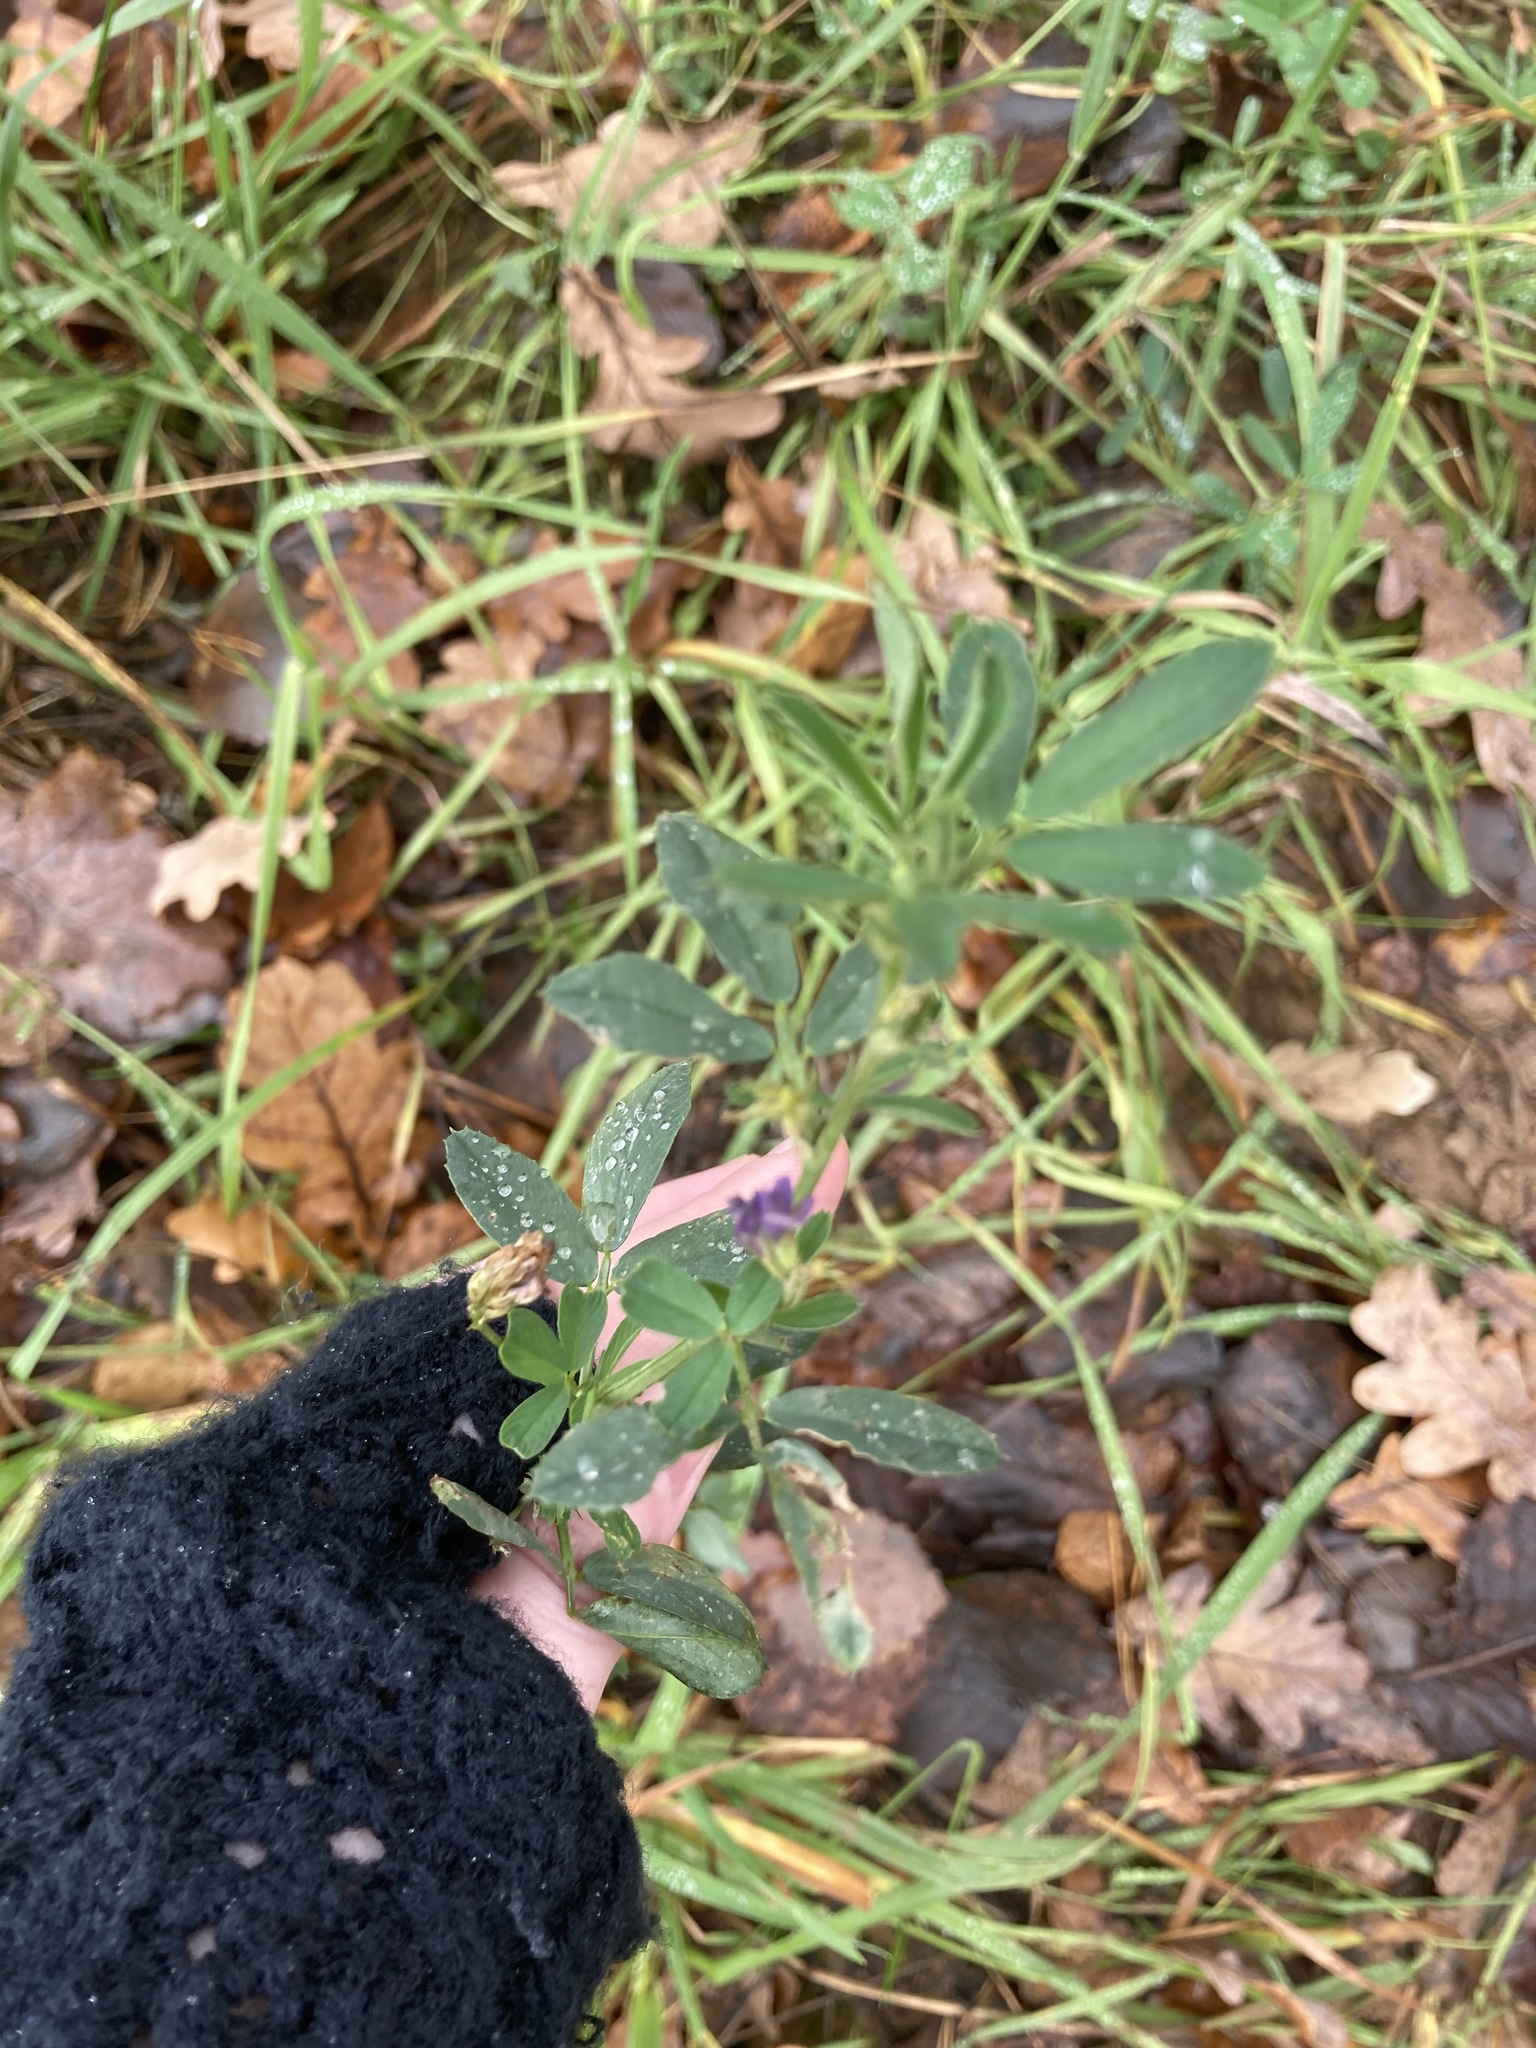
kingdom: Plantae
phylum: Tracheophyta
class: Magnoliopsida
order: Fabales
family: Fabaceae
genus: Medicago
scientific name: Medicago sativa
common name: Alfalfa
